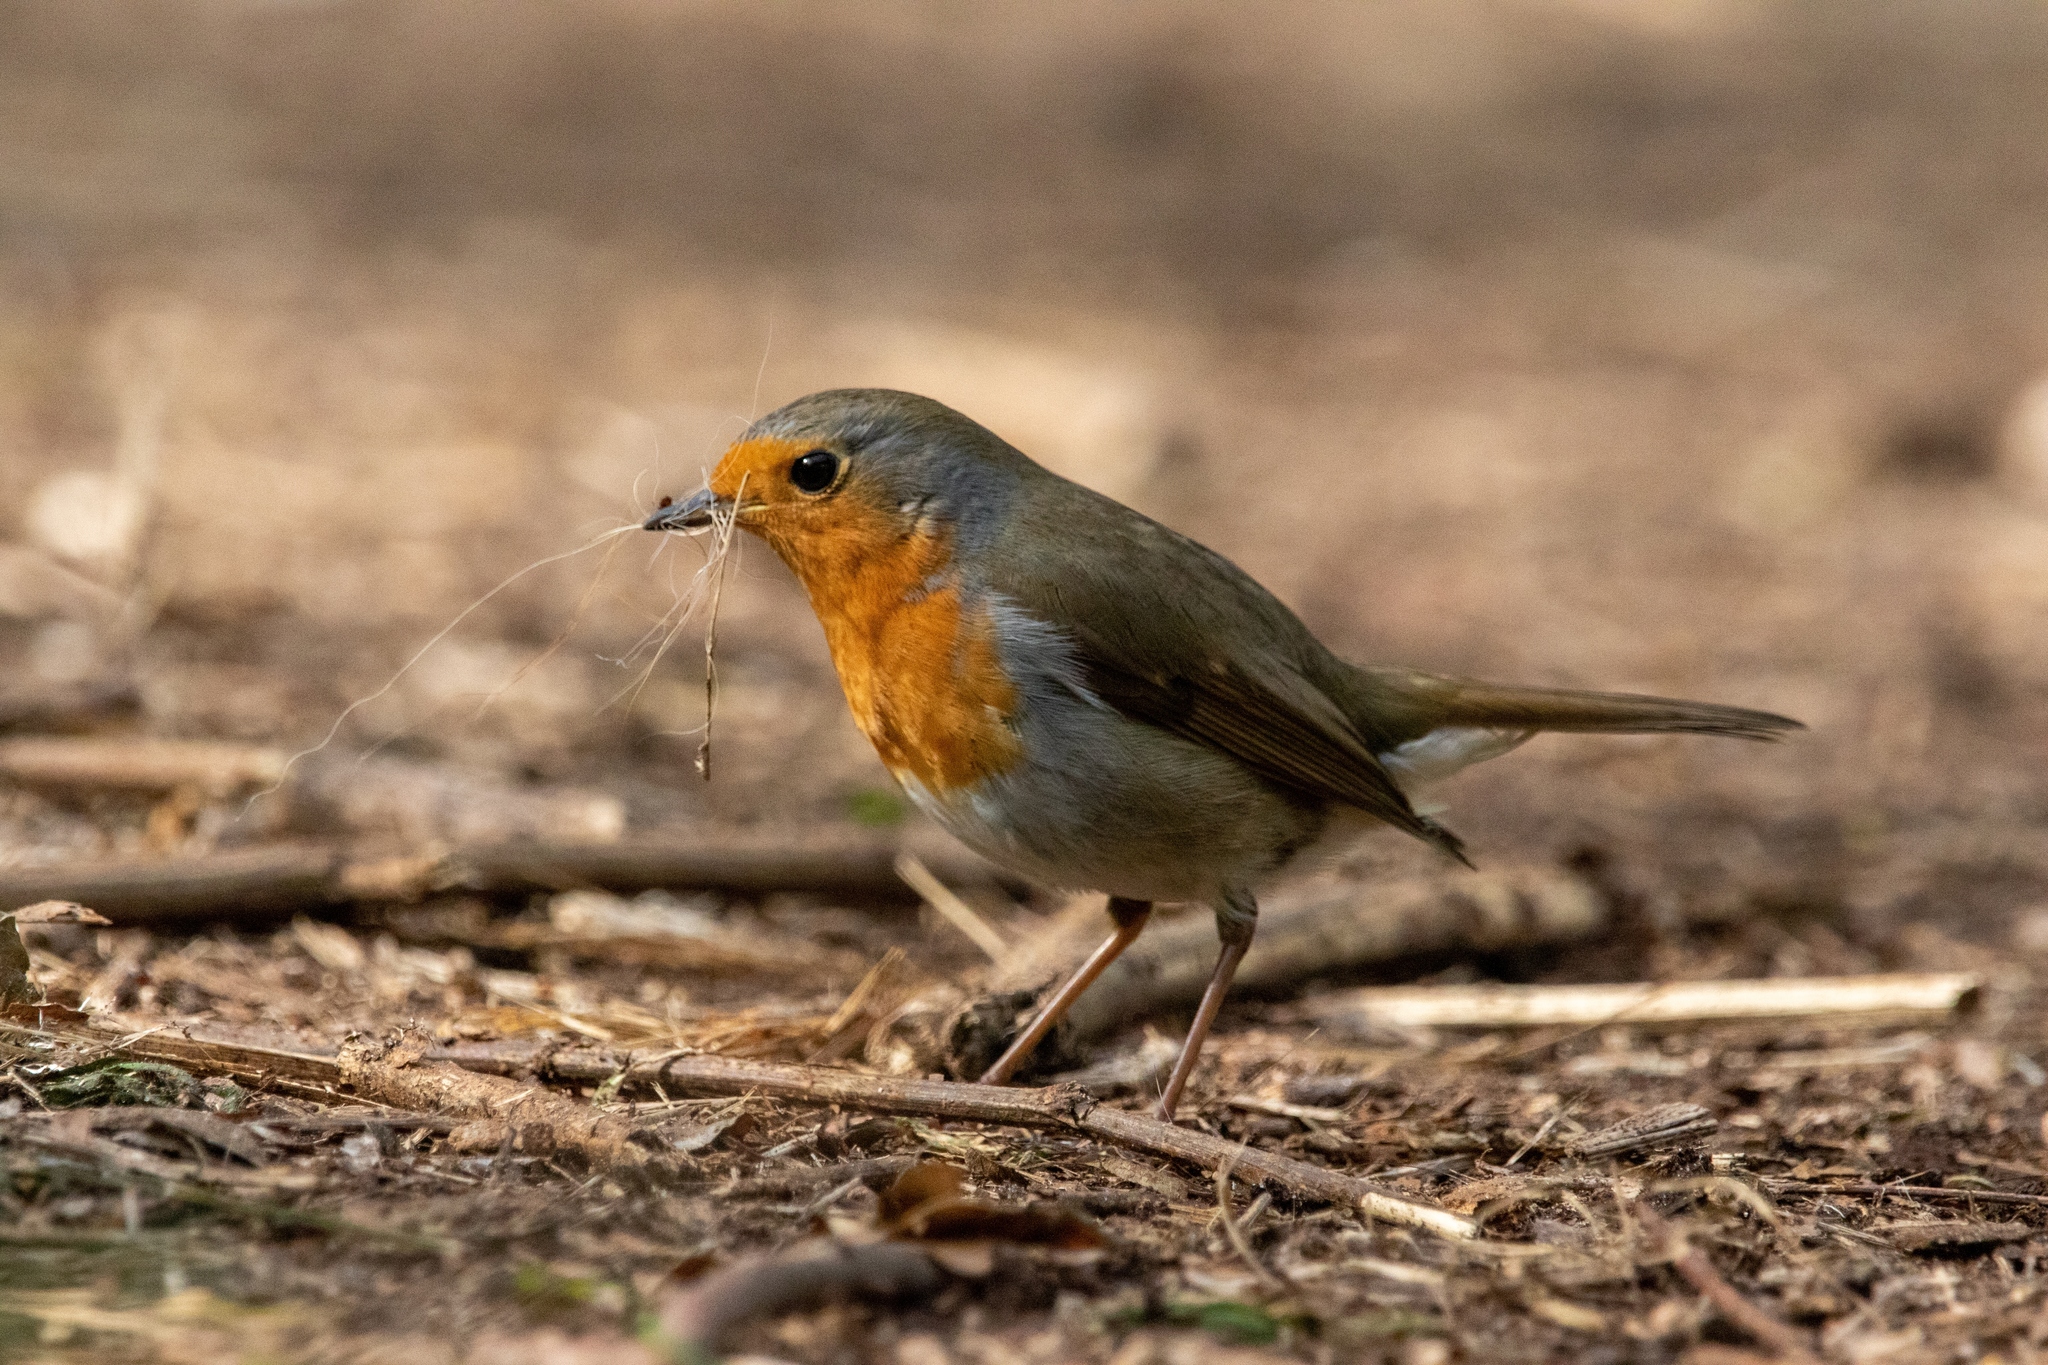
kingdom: Animalia
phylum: Chordata
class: Aves
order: Passeriformes
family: Muscicapidae
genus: Erithacus
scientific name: Erithacus rubecula
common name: European robin
